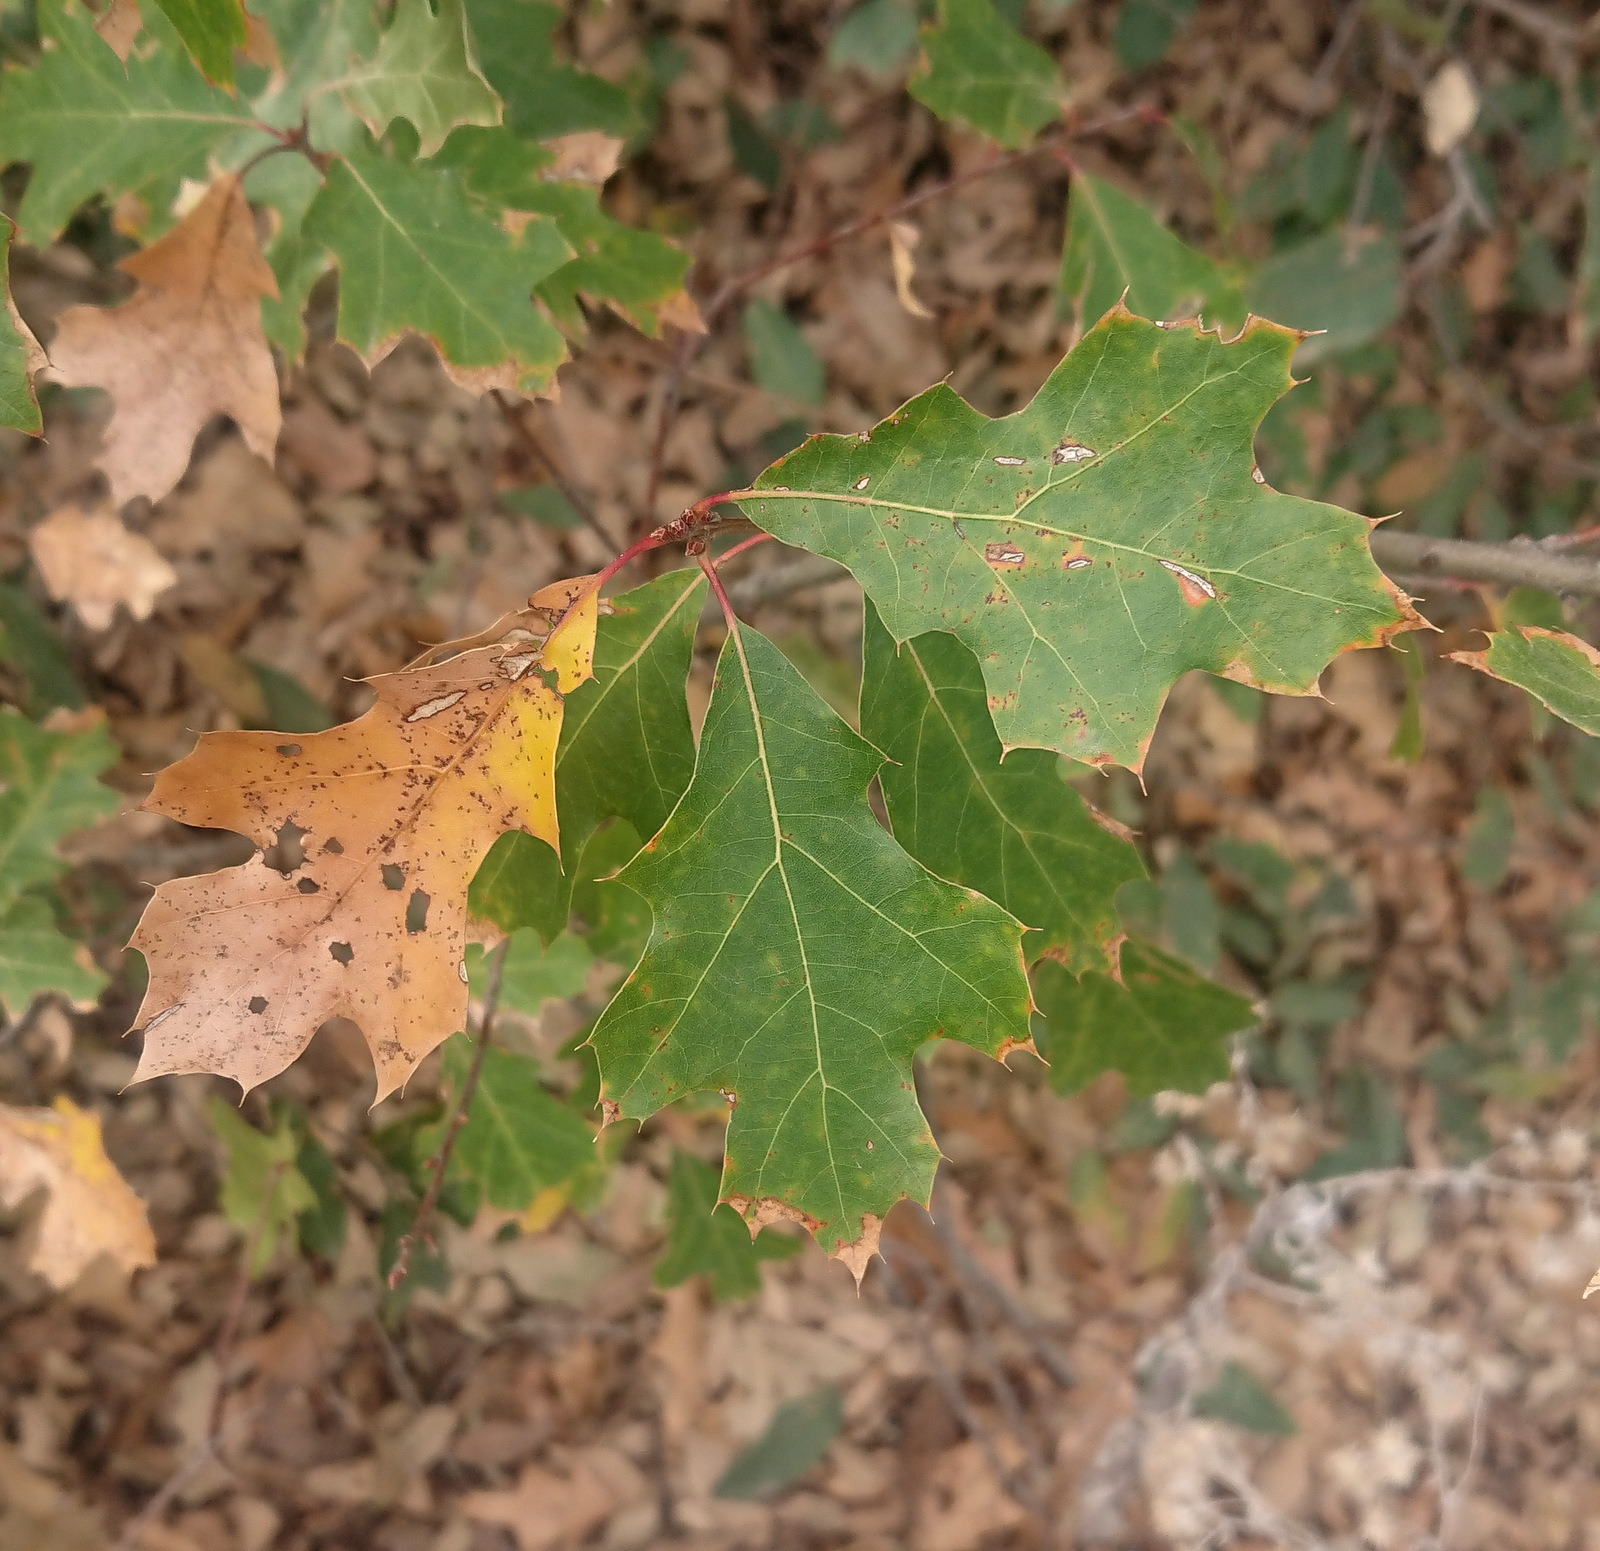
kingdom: Plantae
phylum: Tracheophyta
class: Magnoliopsida
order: Fagales
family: Fagaceae
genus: Quercus
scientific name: Quercus gravesii
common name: Chisos red oak
